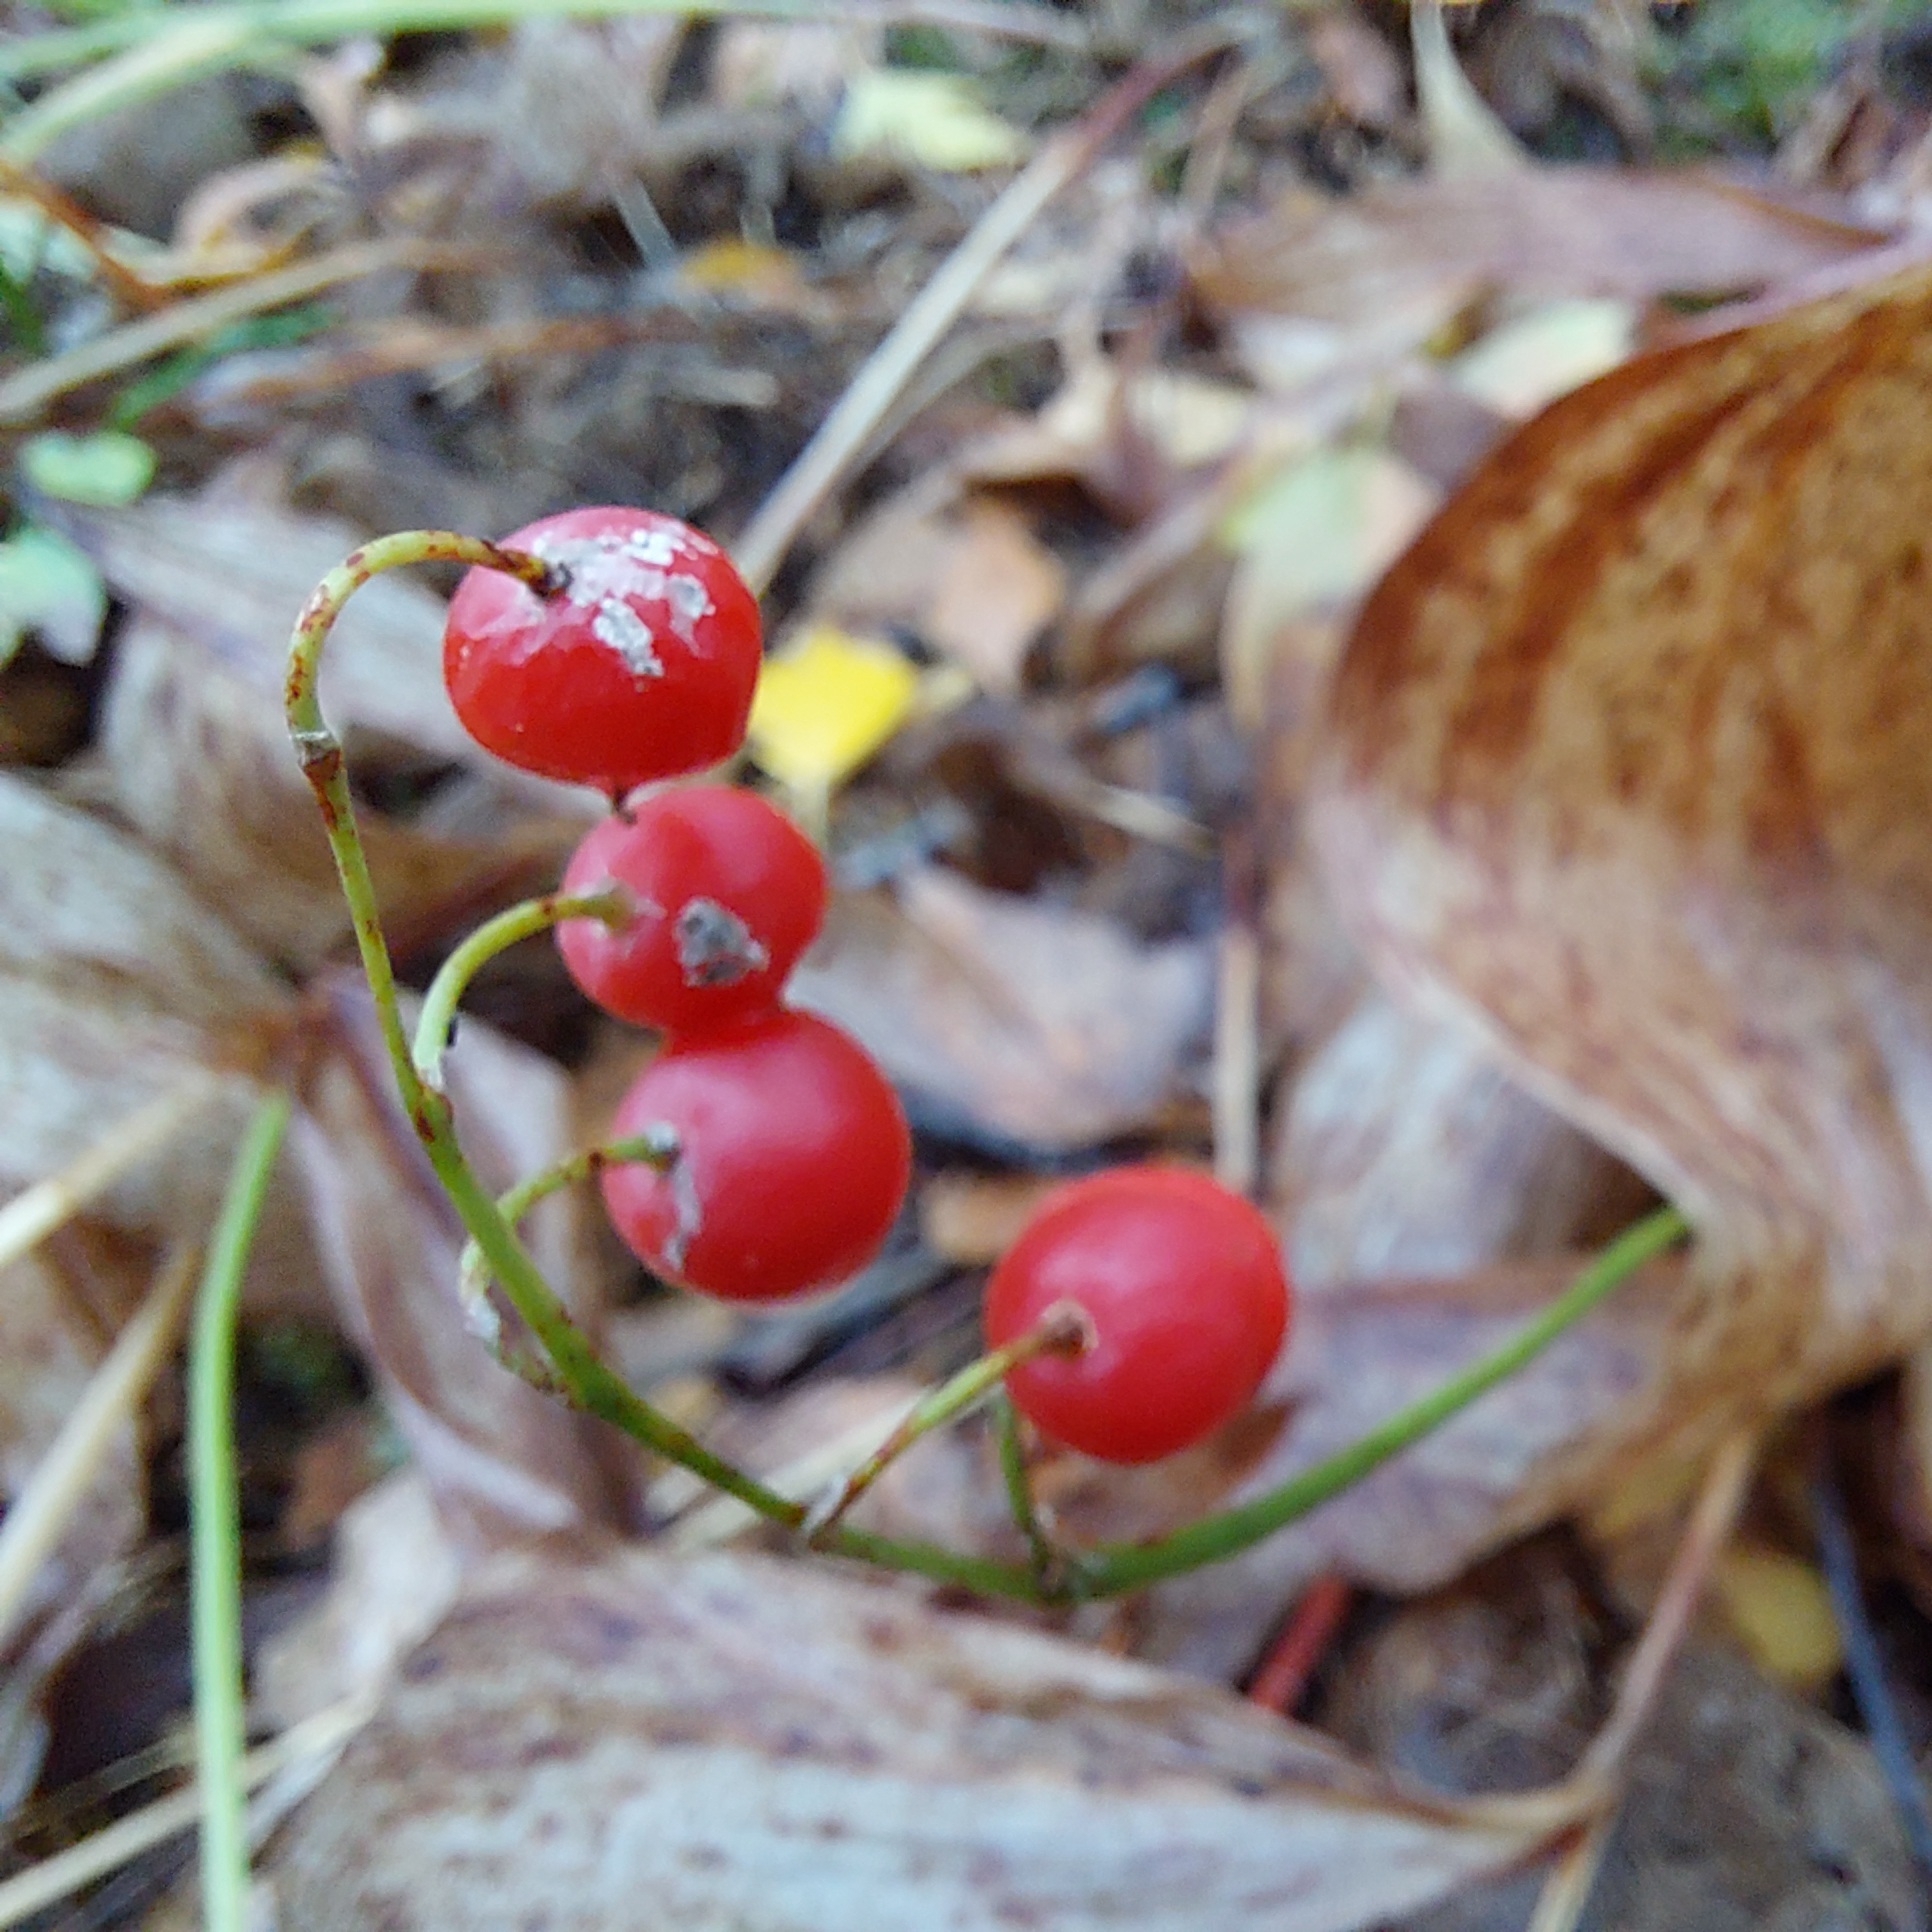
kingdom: Plantae
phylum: Tracheophyta
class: Liliopsida
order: Asparagales
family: Asparagaceae
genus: Convallaria
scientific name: Convallaria majalis
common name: Lily-of-the-valley
